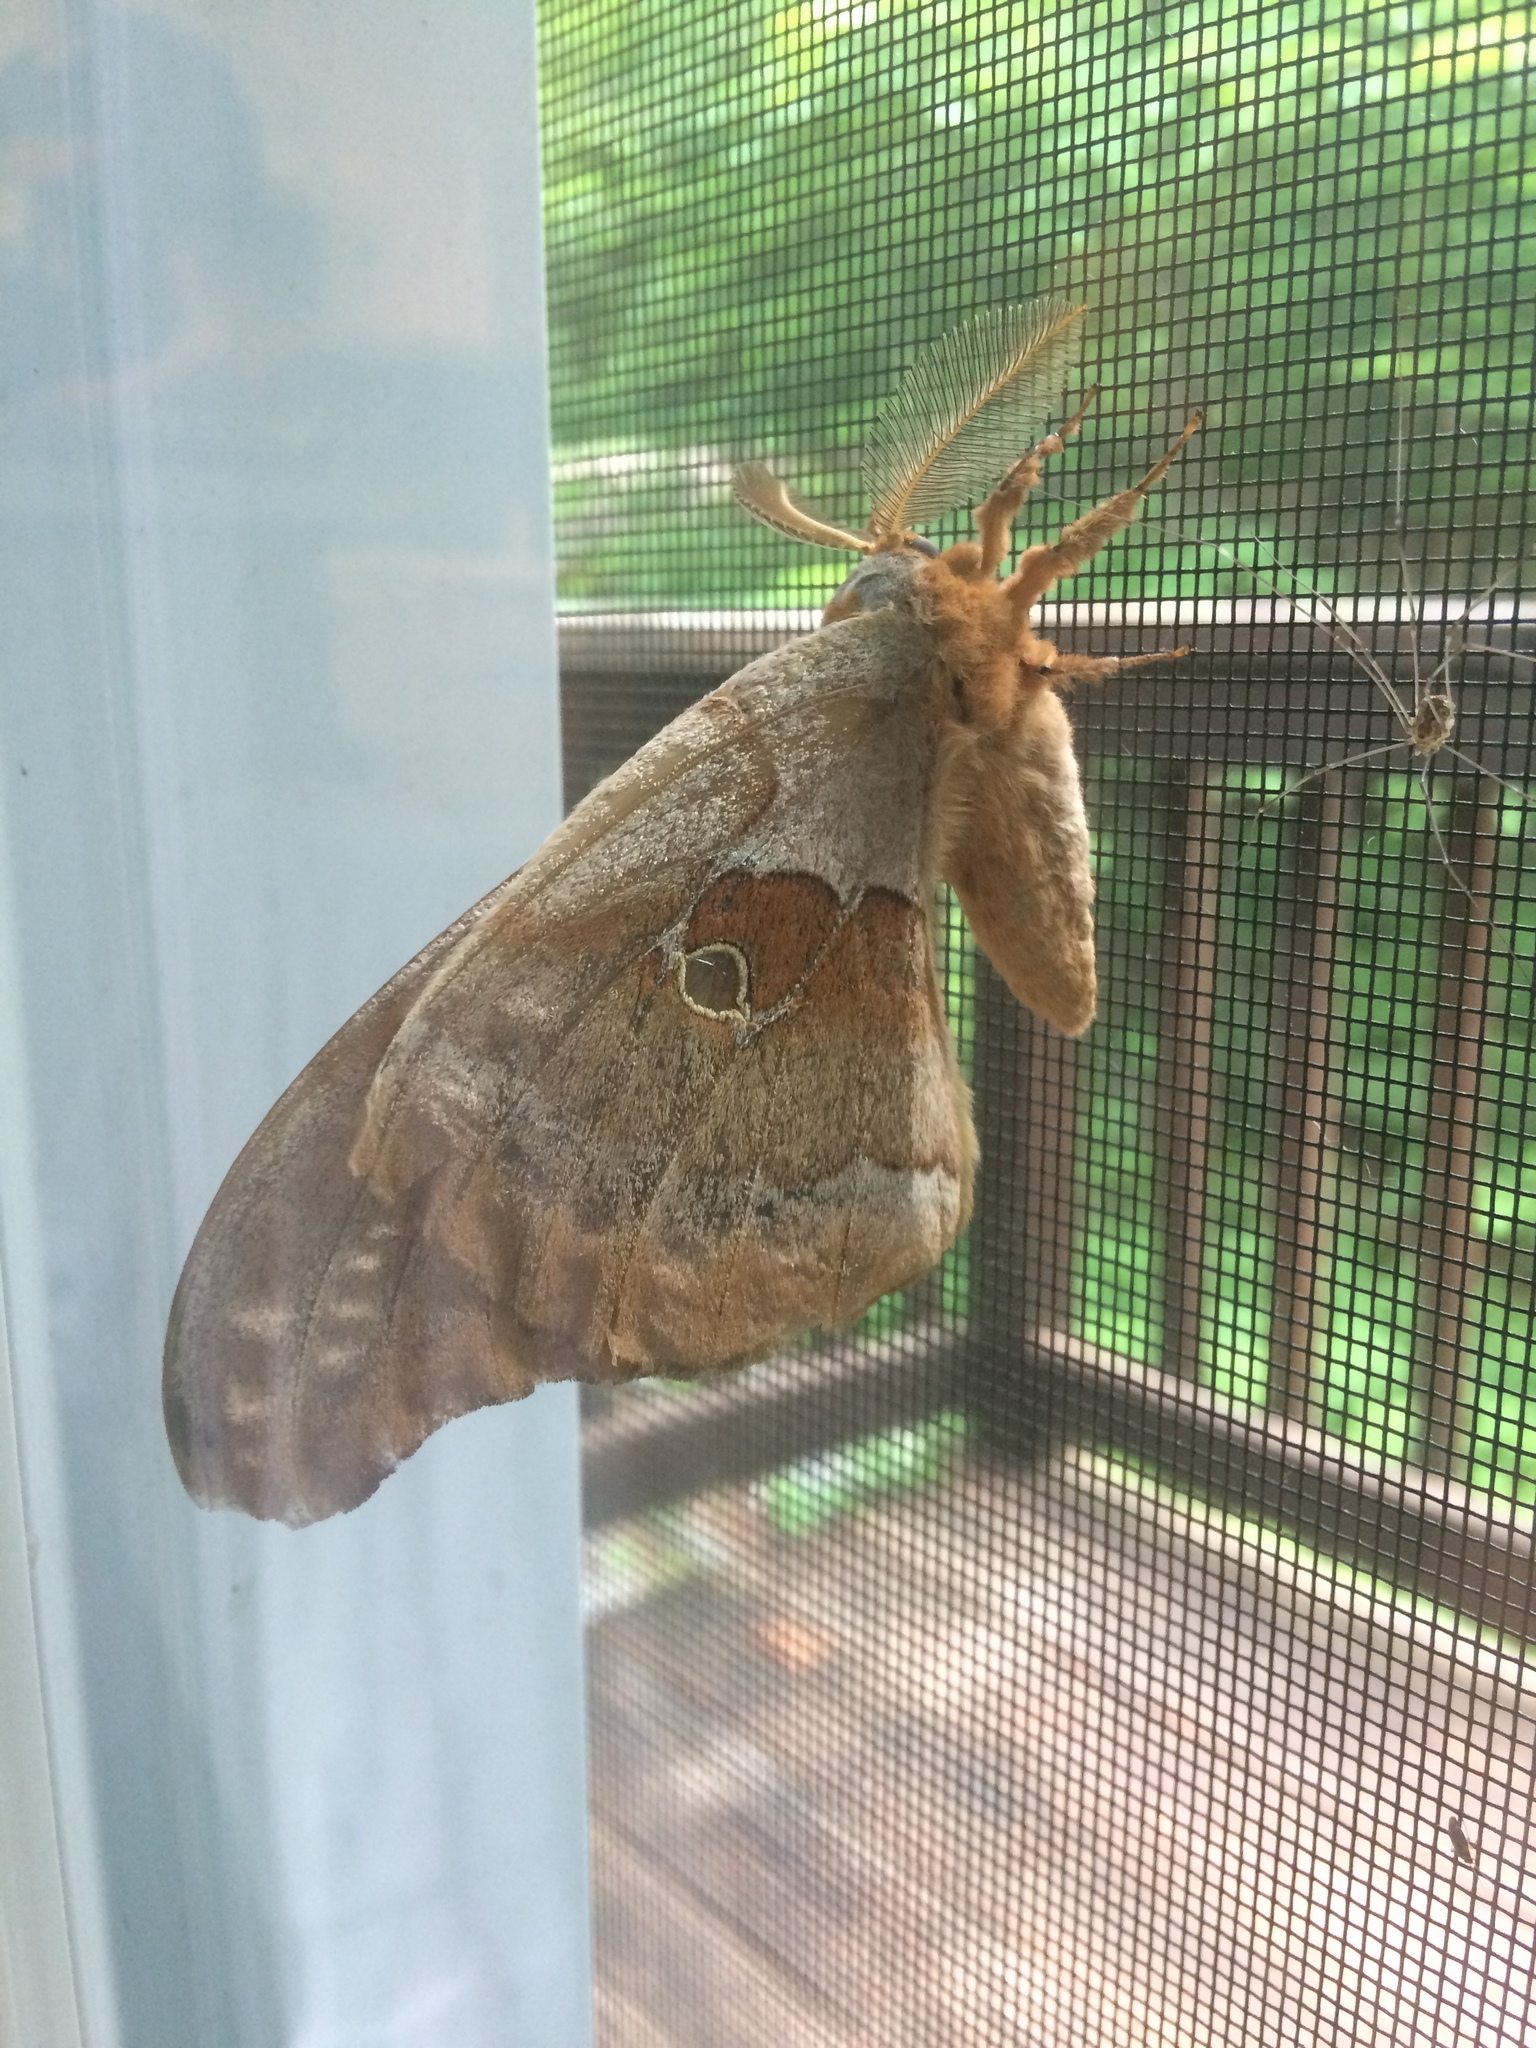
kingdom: Animalia
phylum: Arthropoda
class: Insecta
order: Lepidoptera
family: Saturniidae
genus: Antheraea
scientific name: Antheraea polyphemus
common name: Polyphemus moth
